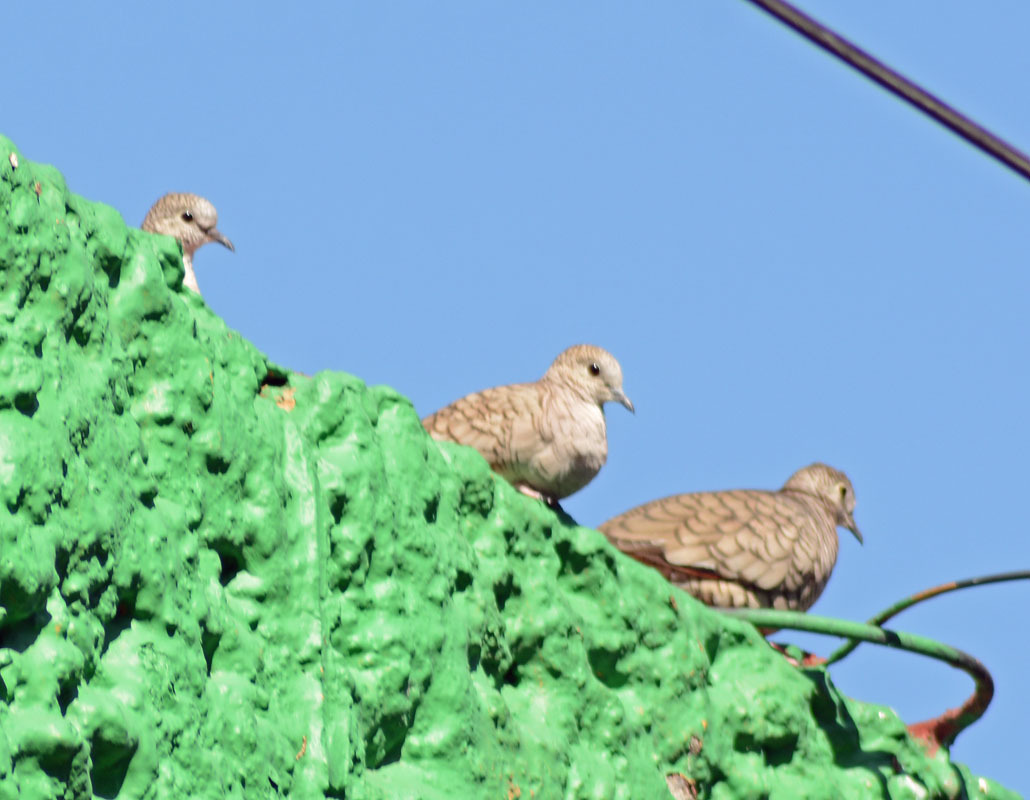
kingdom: Animalia
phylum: Chordata
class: Aves
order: Columbiformes
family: Columbidae
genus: Columbina
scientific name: Columbina inca
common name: Inca dove
